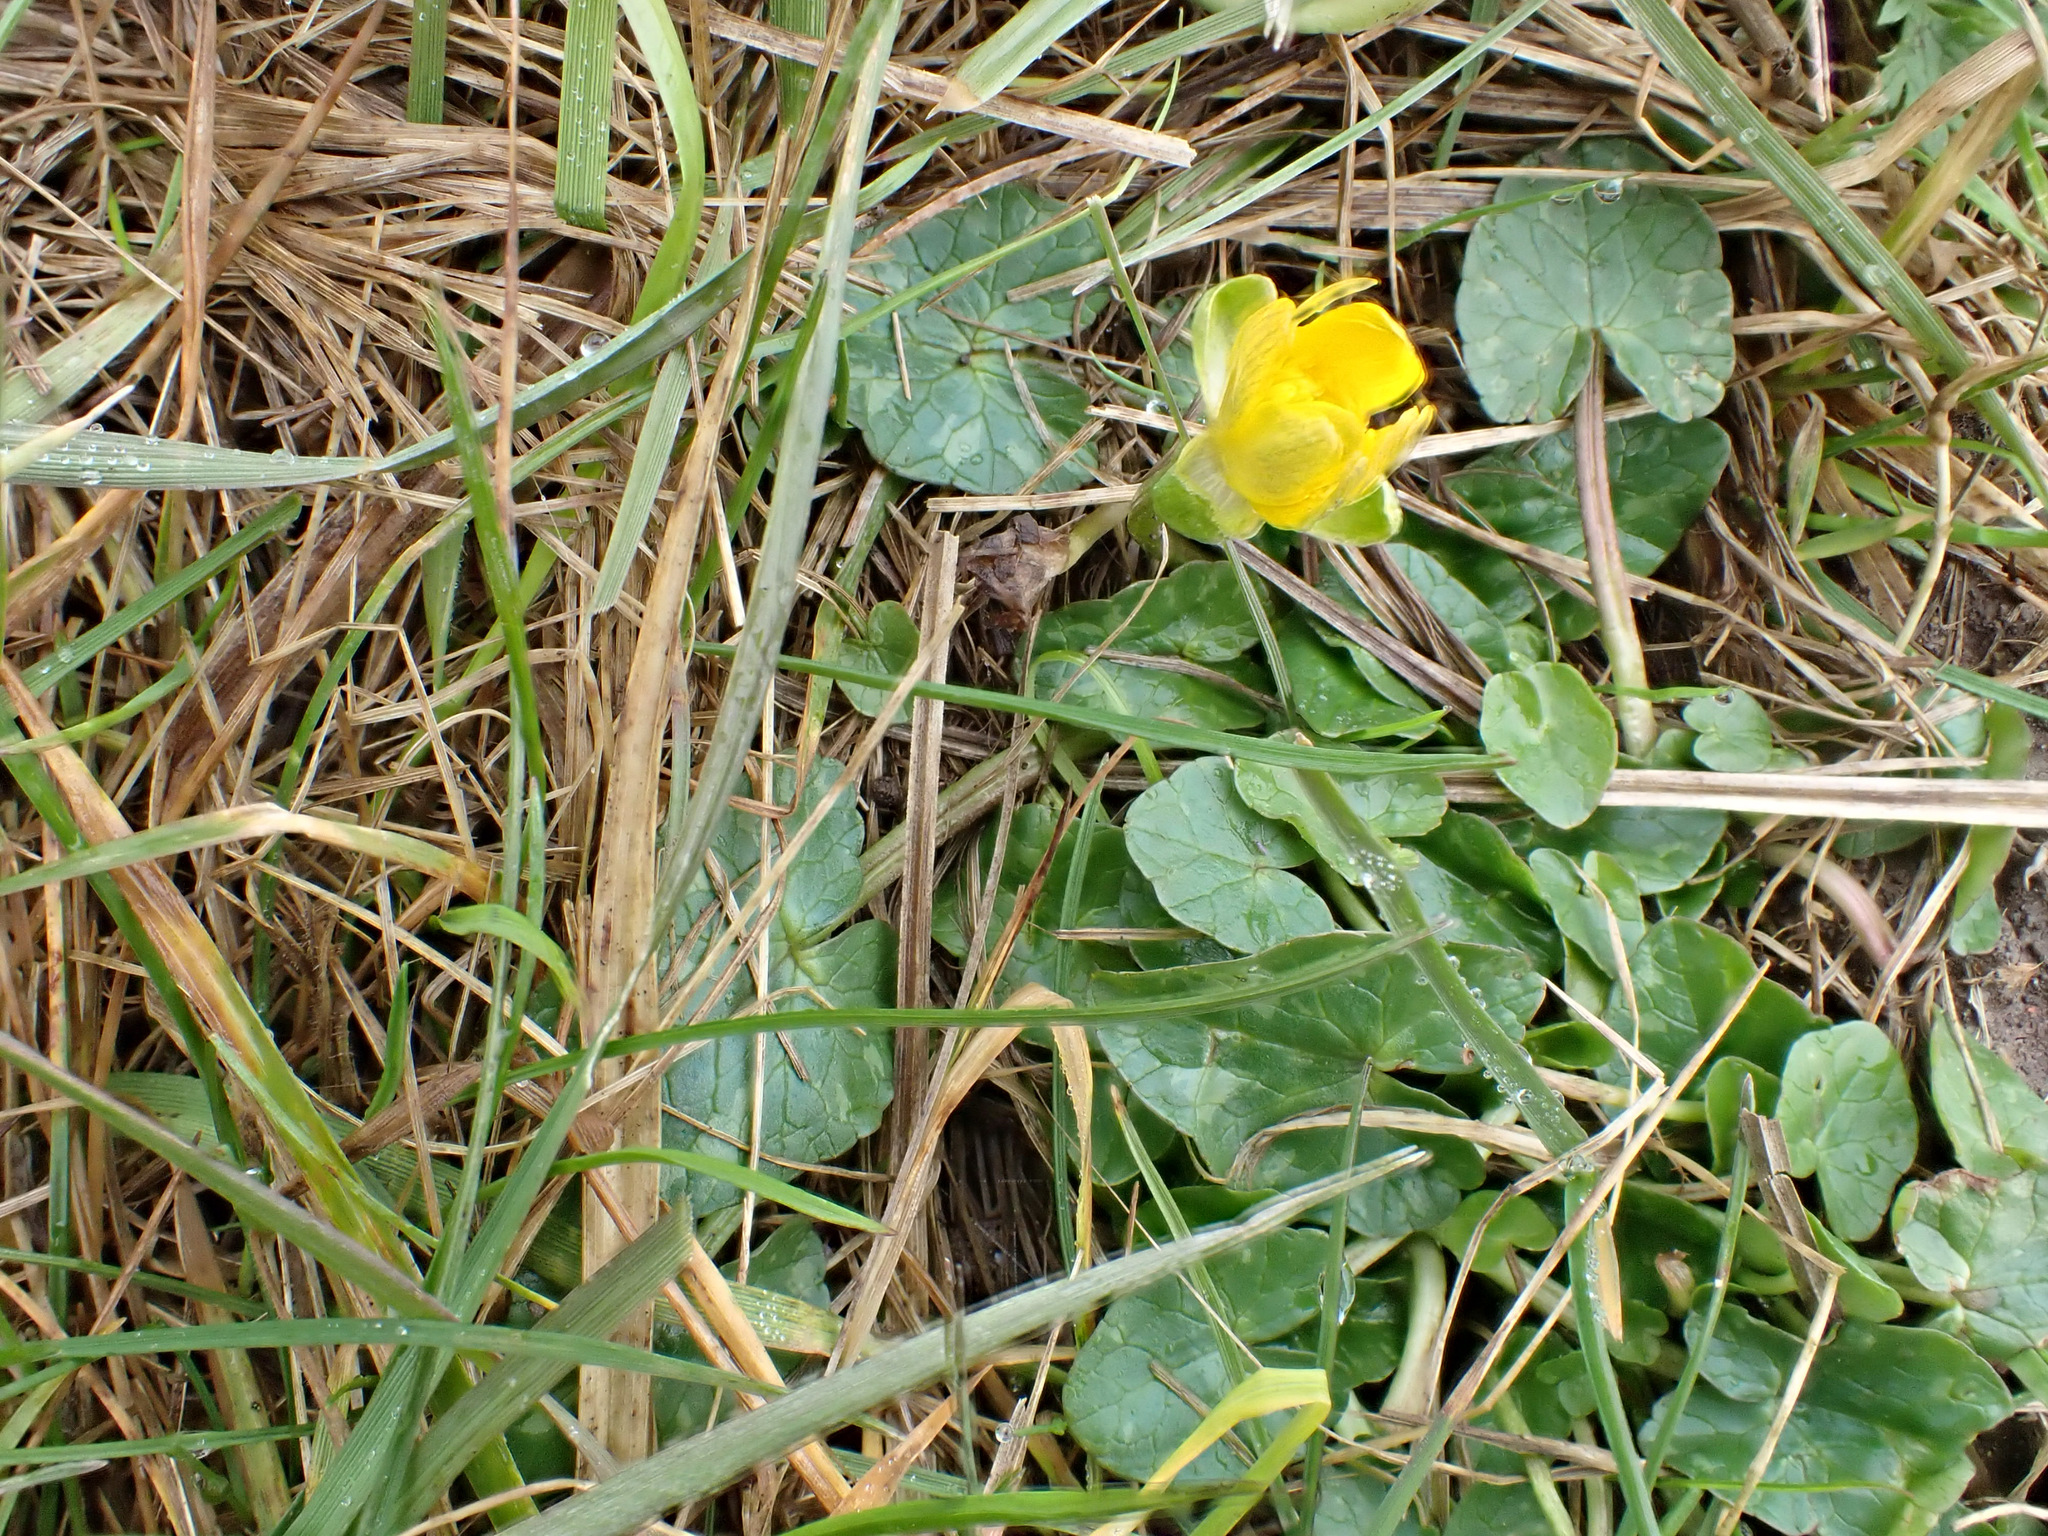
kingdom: Plantae
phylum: Tracheophyta
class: Magnoliopsida
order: Ranunculales
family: Ranunculaceae
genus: Ficaria
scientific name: Ficaria verna
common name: Lesser celandine
